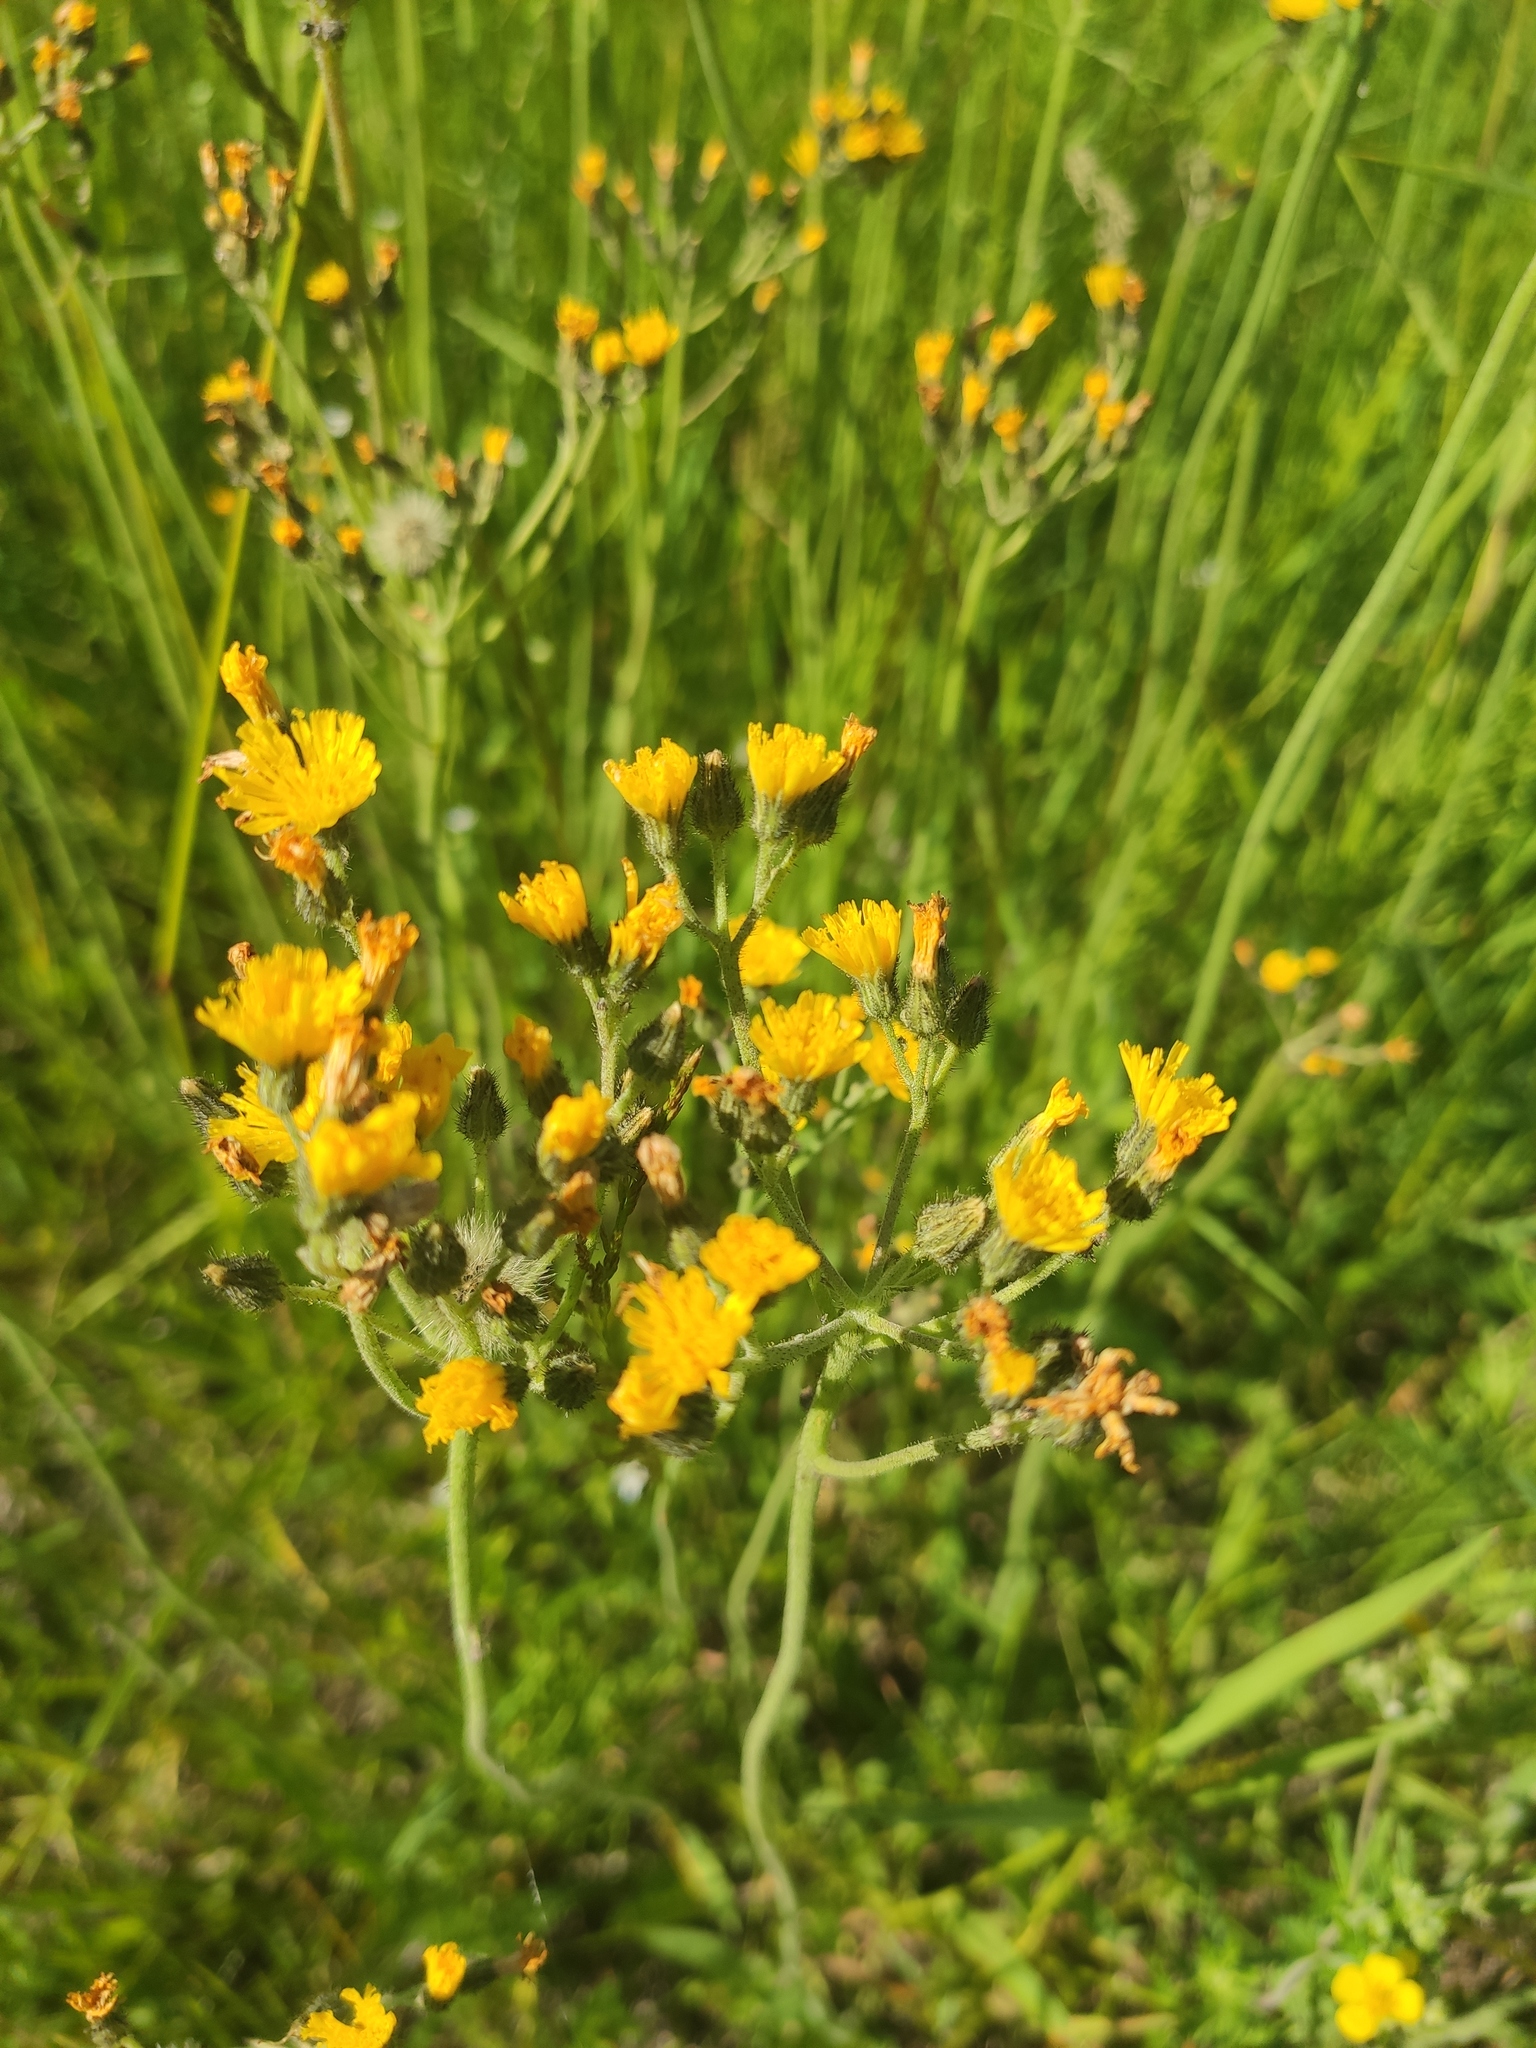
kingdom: Plantae
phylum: Tracheophyta
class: Magnoliopsida
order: Asterales
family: Asteraceae
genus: Pilosella
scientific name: Pilosella
